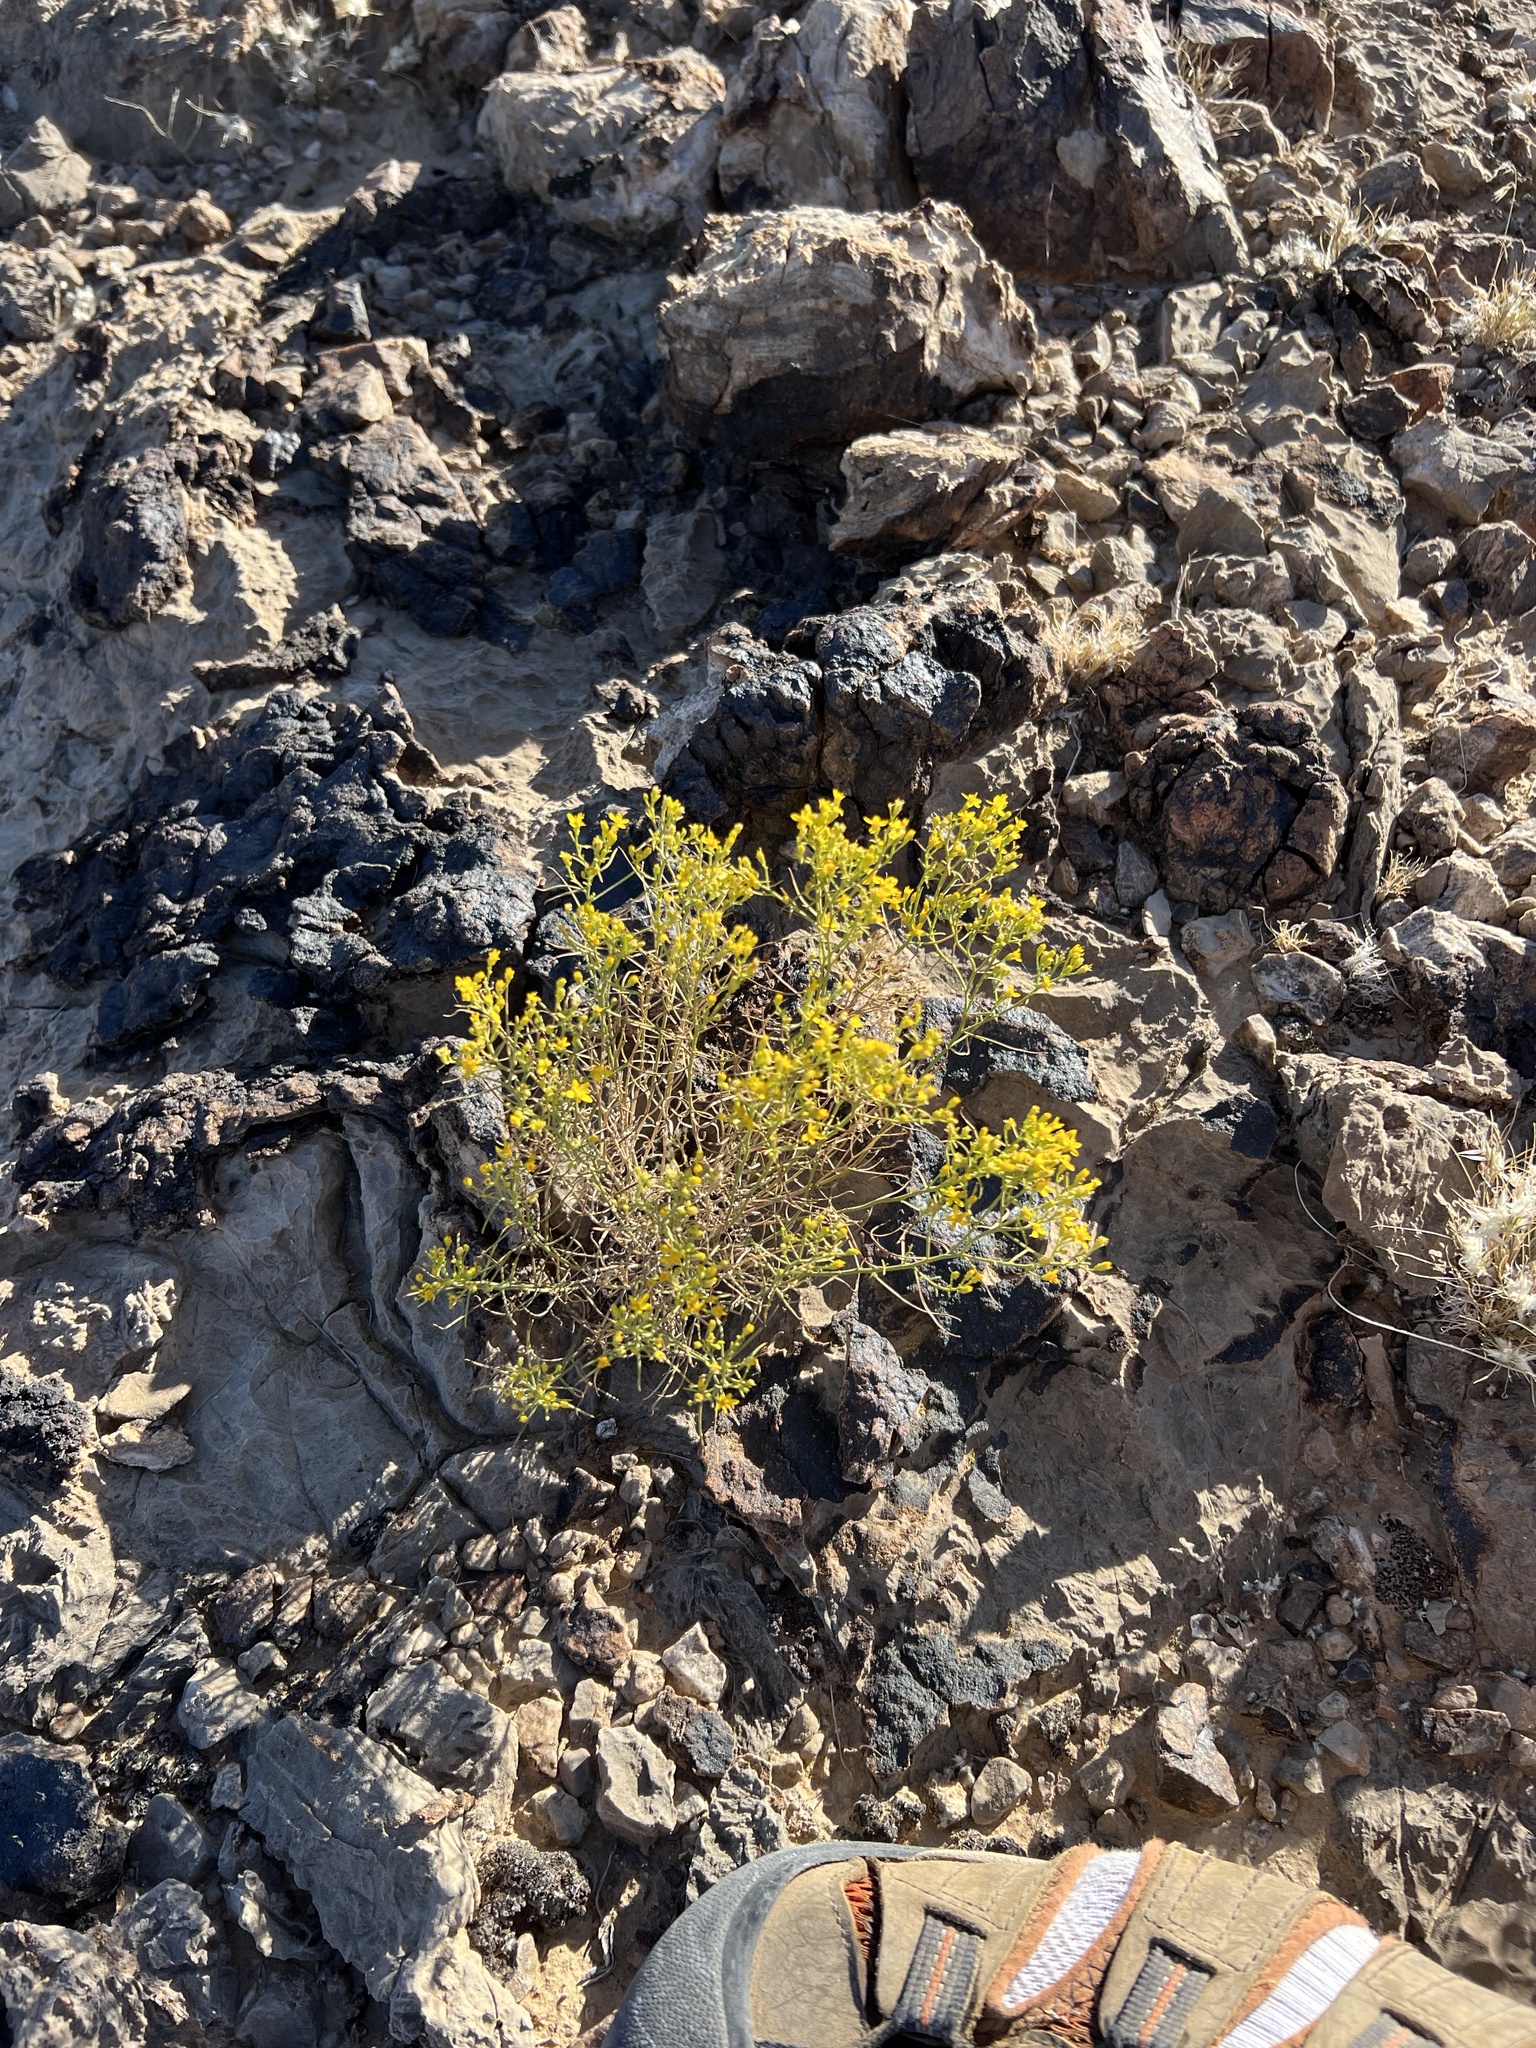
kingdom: Plantae
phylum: Tracheophyta
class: Magnoliopsida
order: Asterales
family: Asteraceae
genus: Gutierrezia
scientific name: Gutierrezia sarothrae
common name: Broom snakeweed
